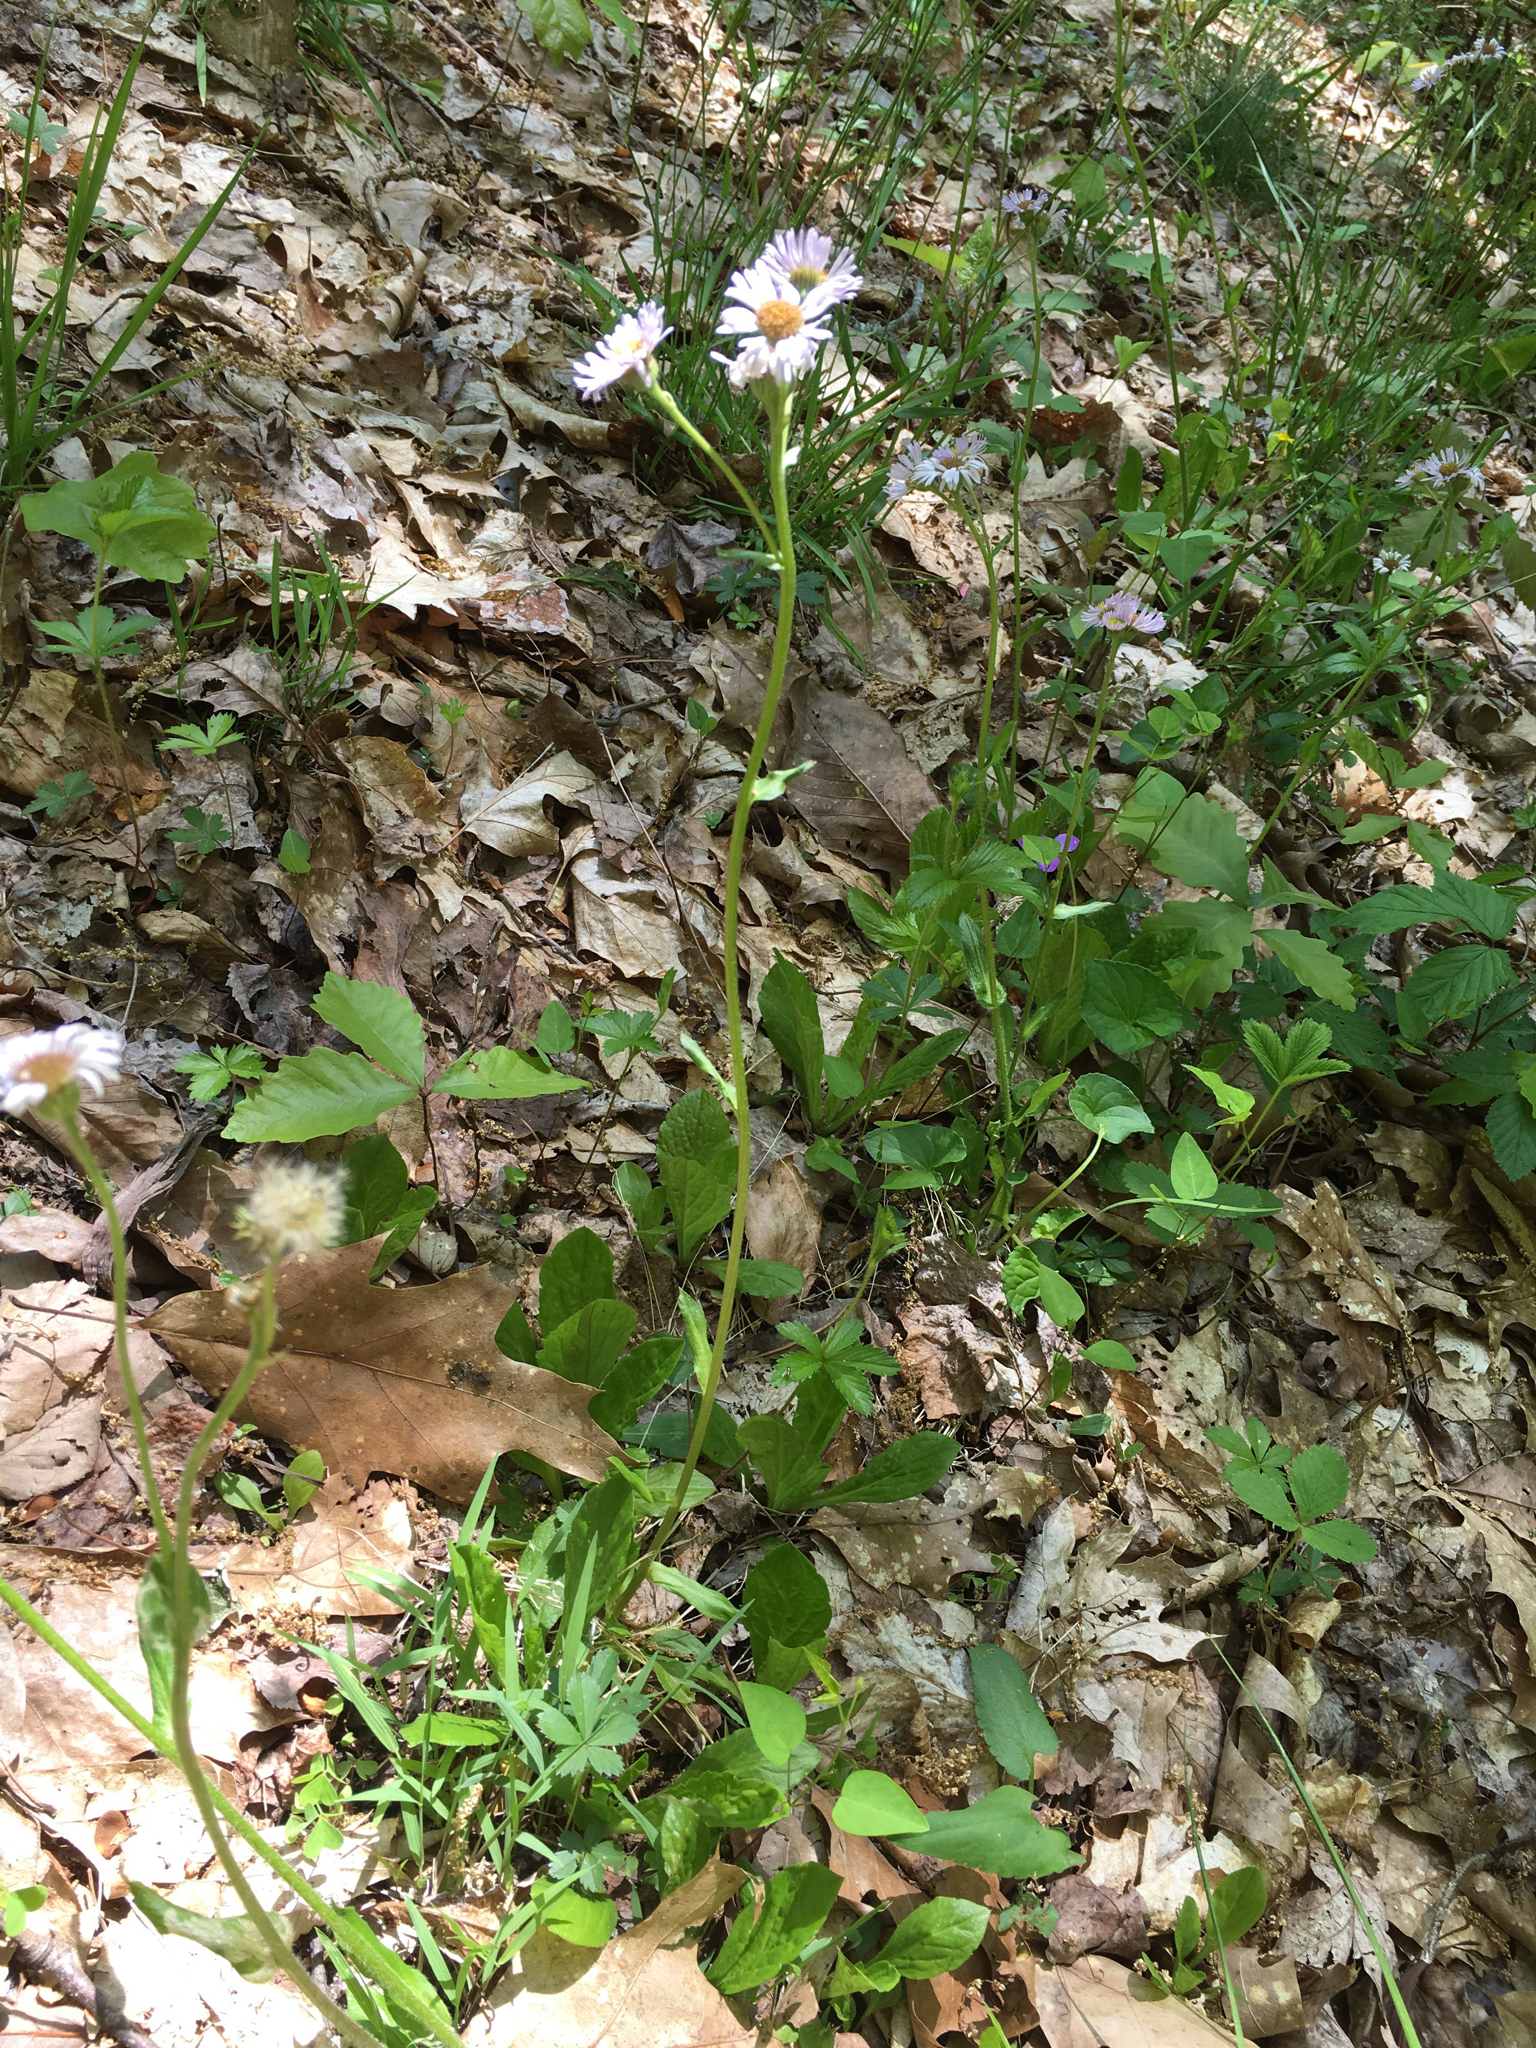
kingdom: Plantae
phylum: Tracheophyta
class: Magnoliopsida
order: Asterales
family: Asteraceae
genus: Erigeron
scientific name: Erigeron pulchellus
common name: Hairy fleabane
